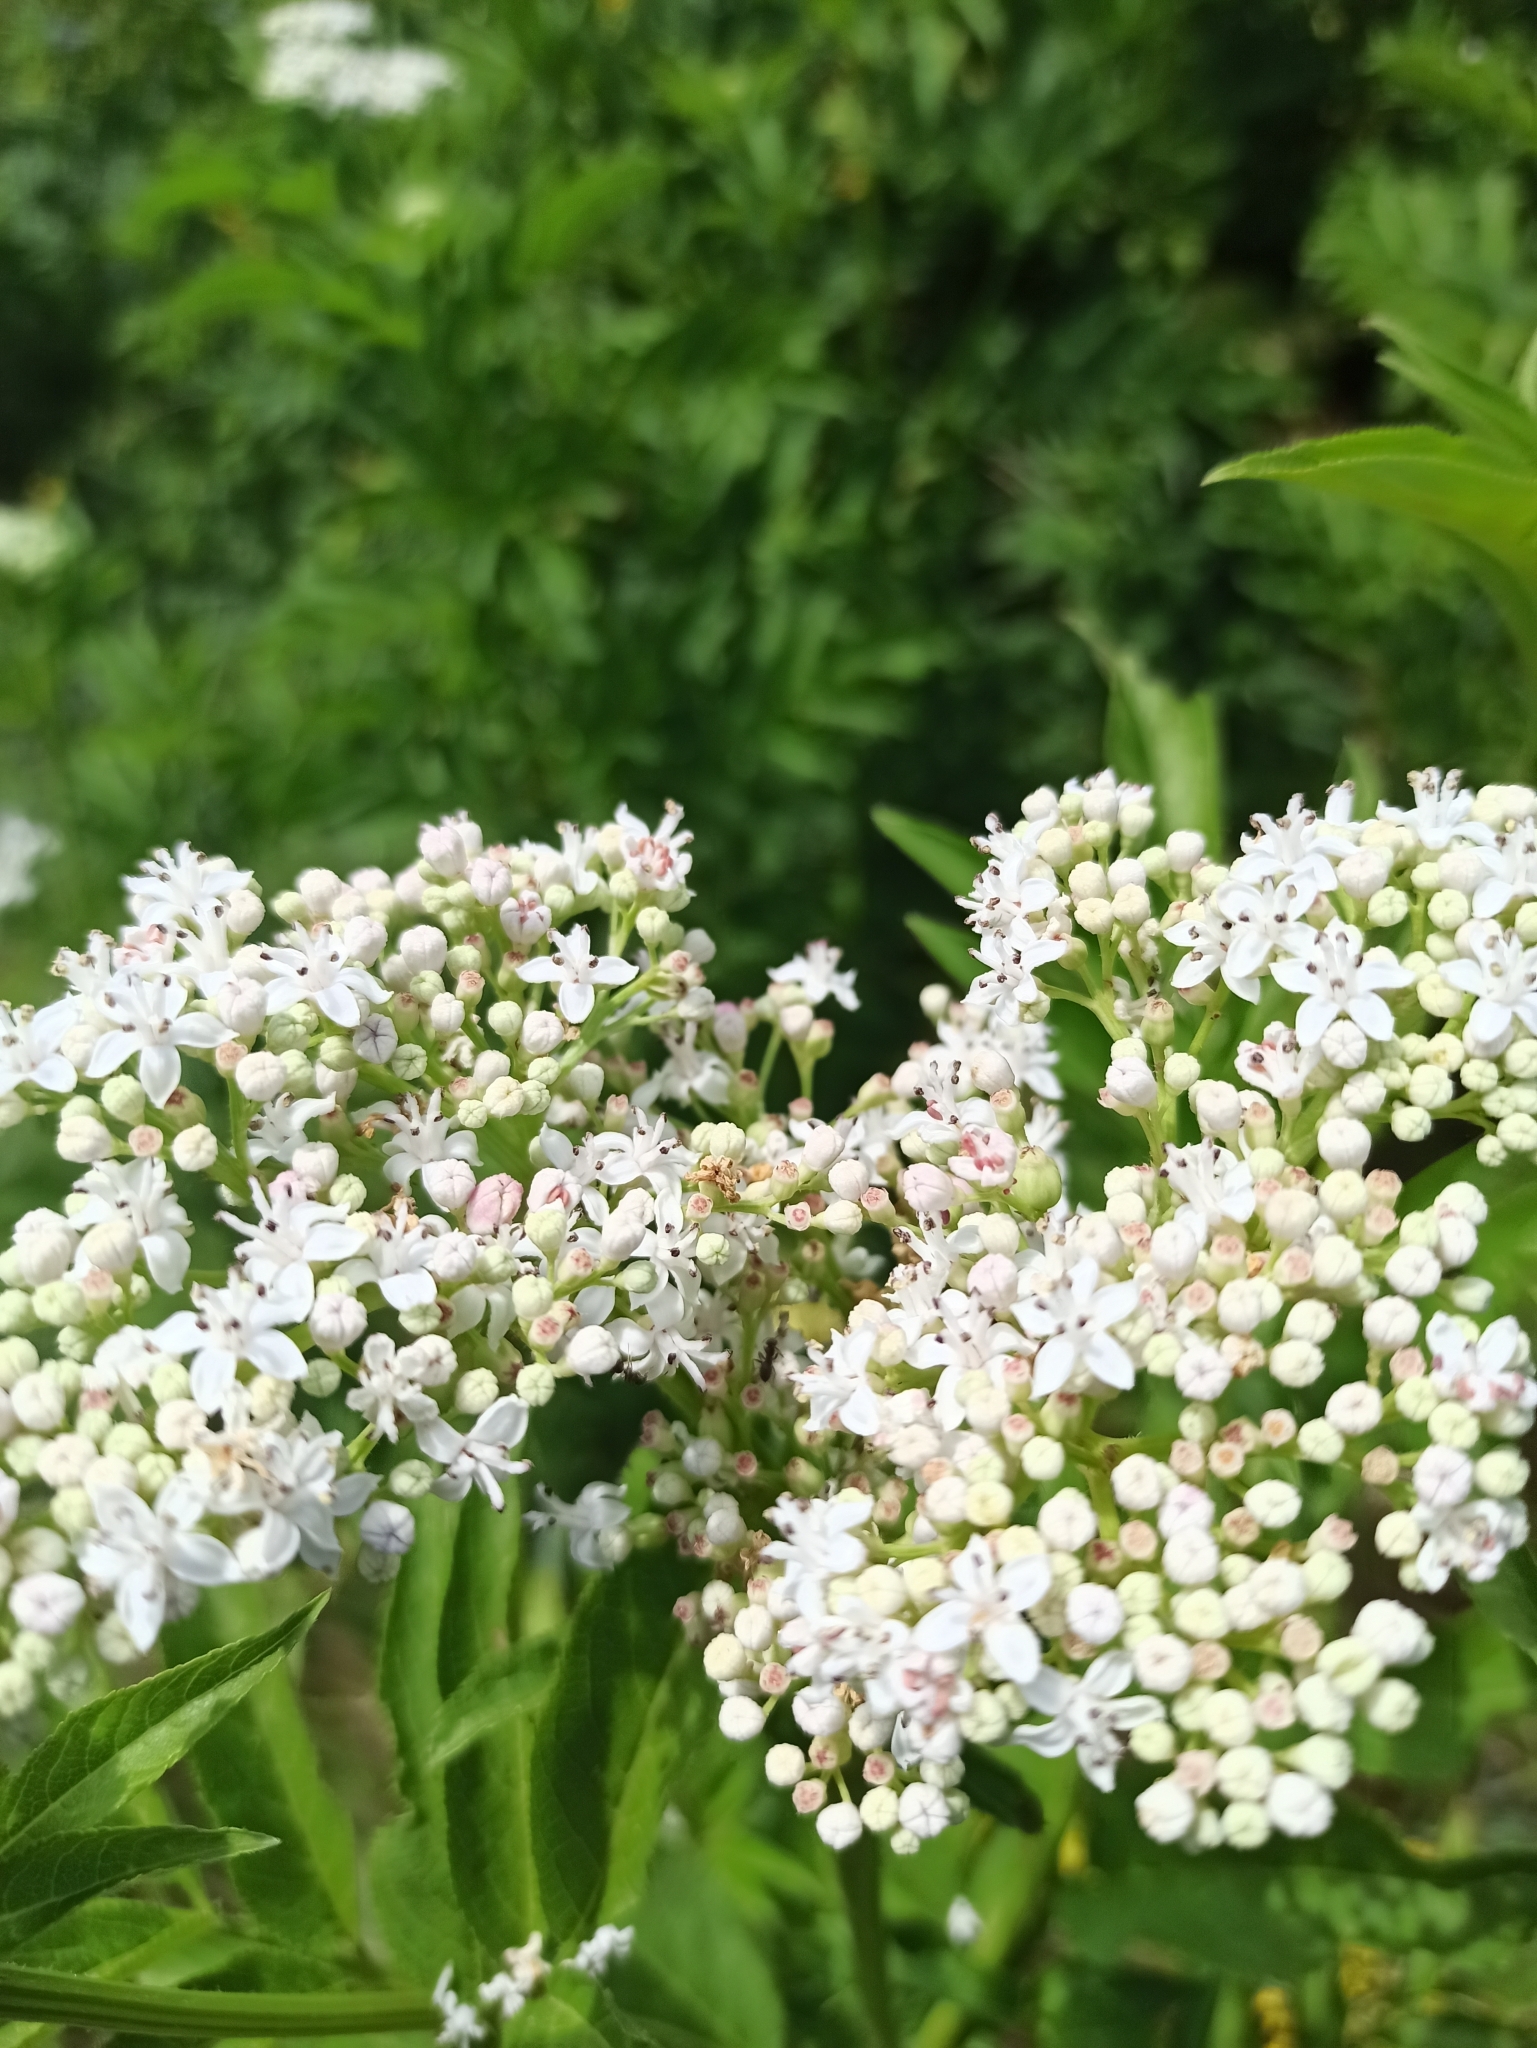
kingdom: Plantae
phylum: Tracheophyta
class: Magnoliopsida
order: Dipsacales
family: Viburnaceae
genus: Sambucus
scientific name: Sambucus ebulus
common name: Dwarf elder
